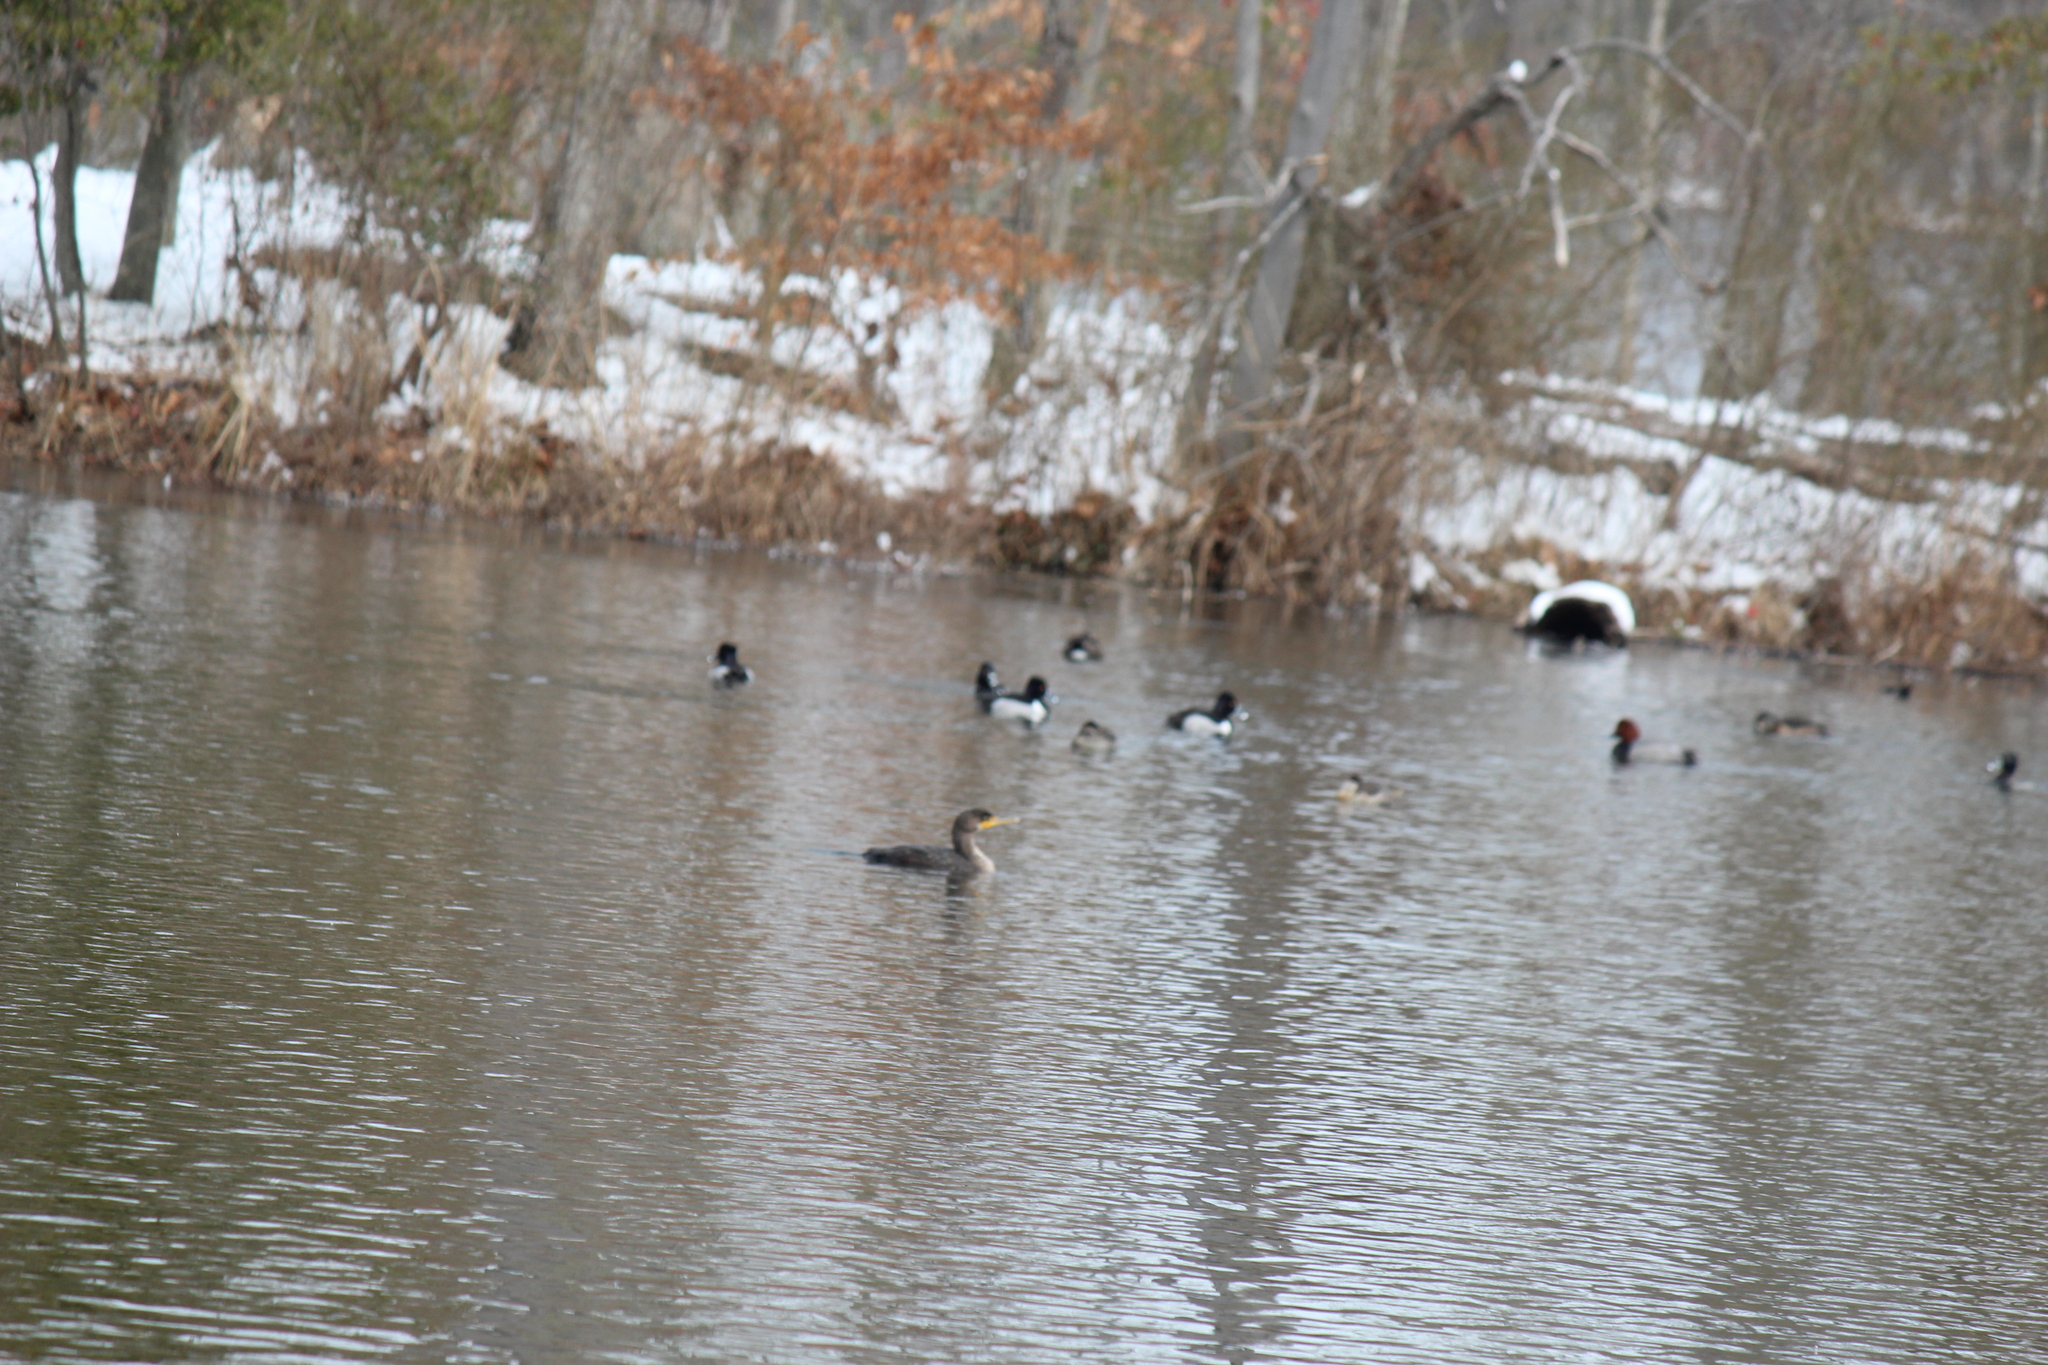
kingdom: Animalia
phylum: Chordata
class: Aves
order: Suliformes
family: Phalacrocoracidae
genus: Phalacrocorax
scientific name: Phalacrocorax auritus
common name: Double-crested cormorant
